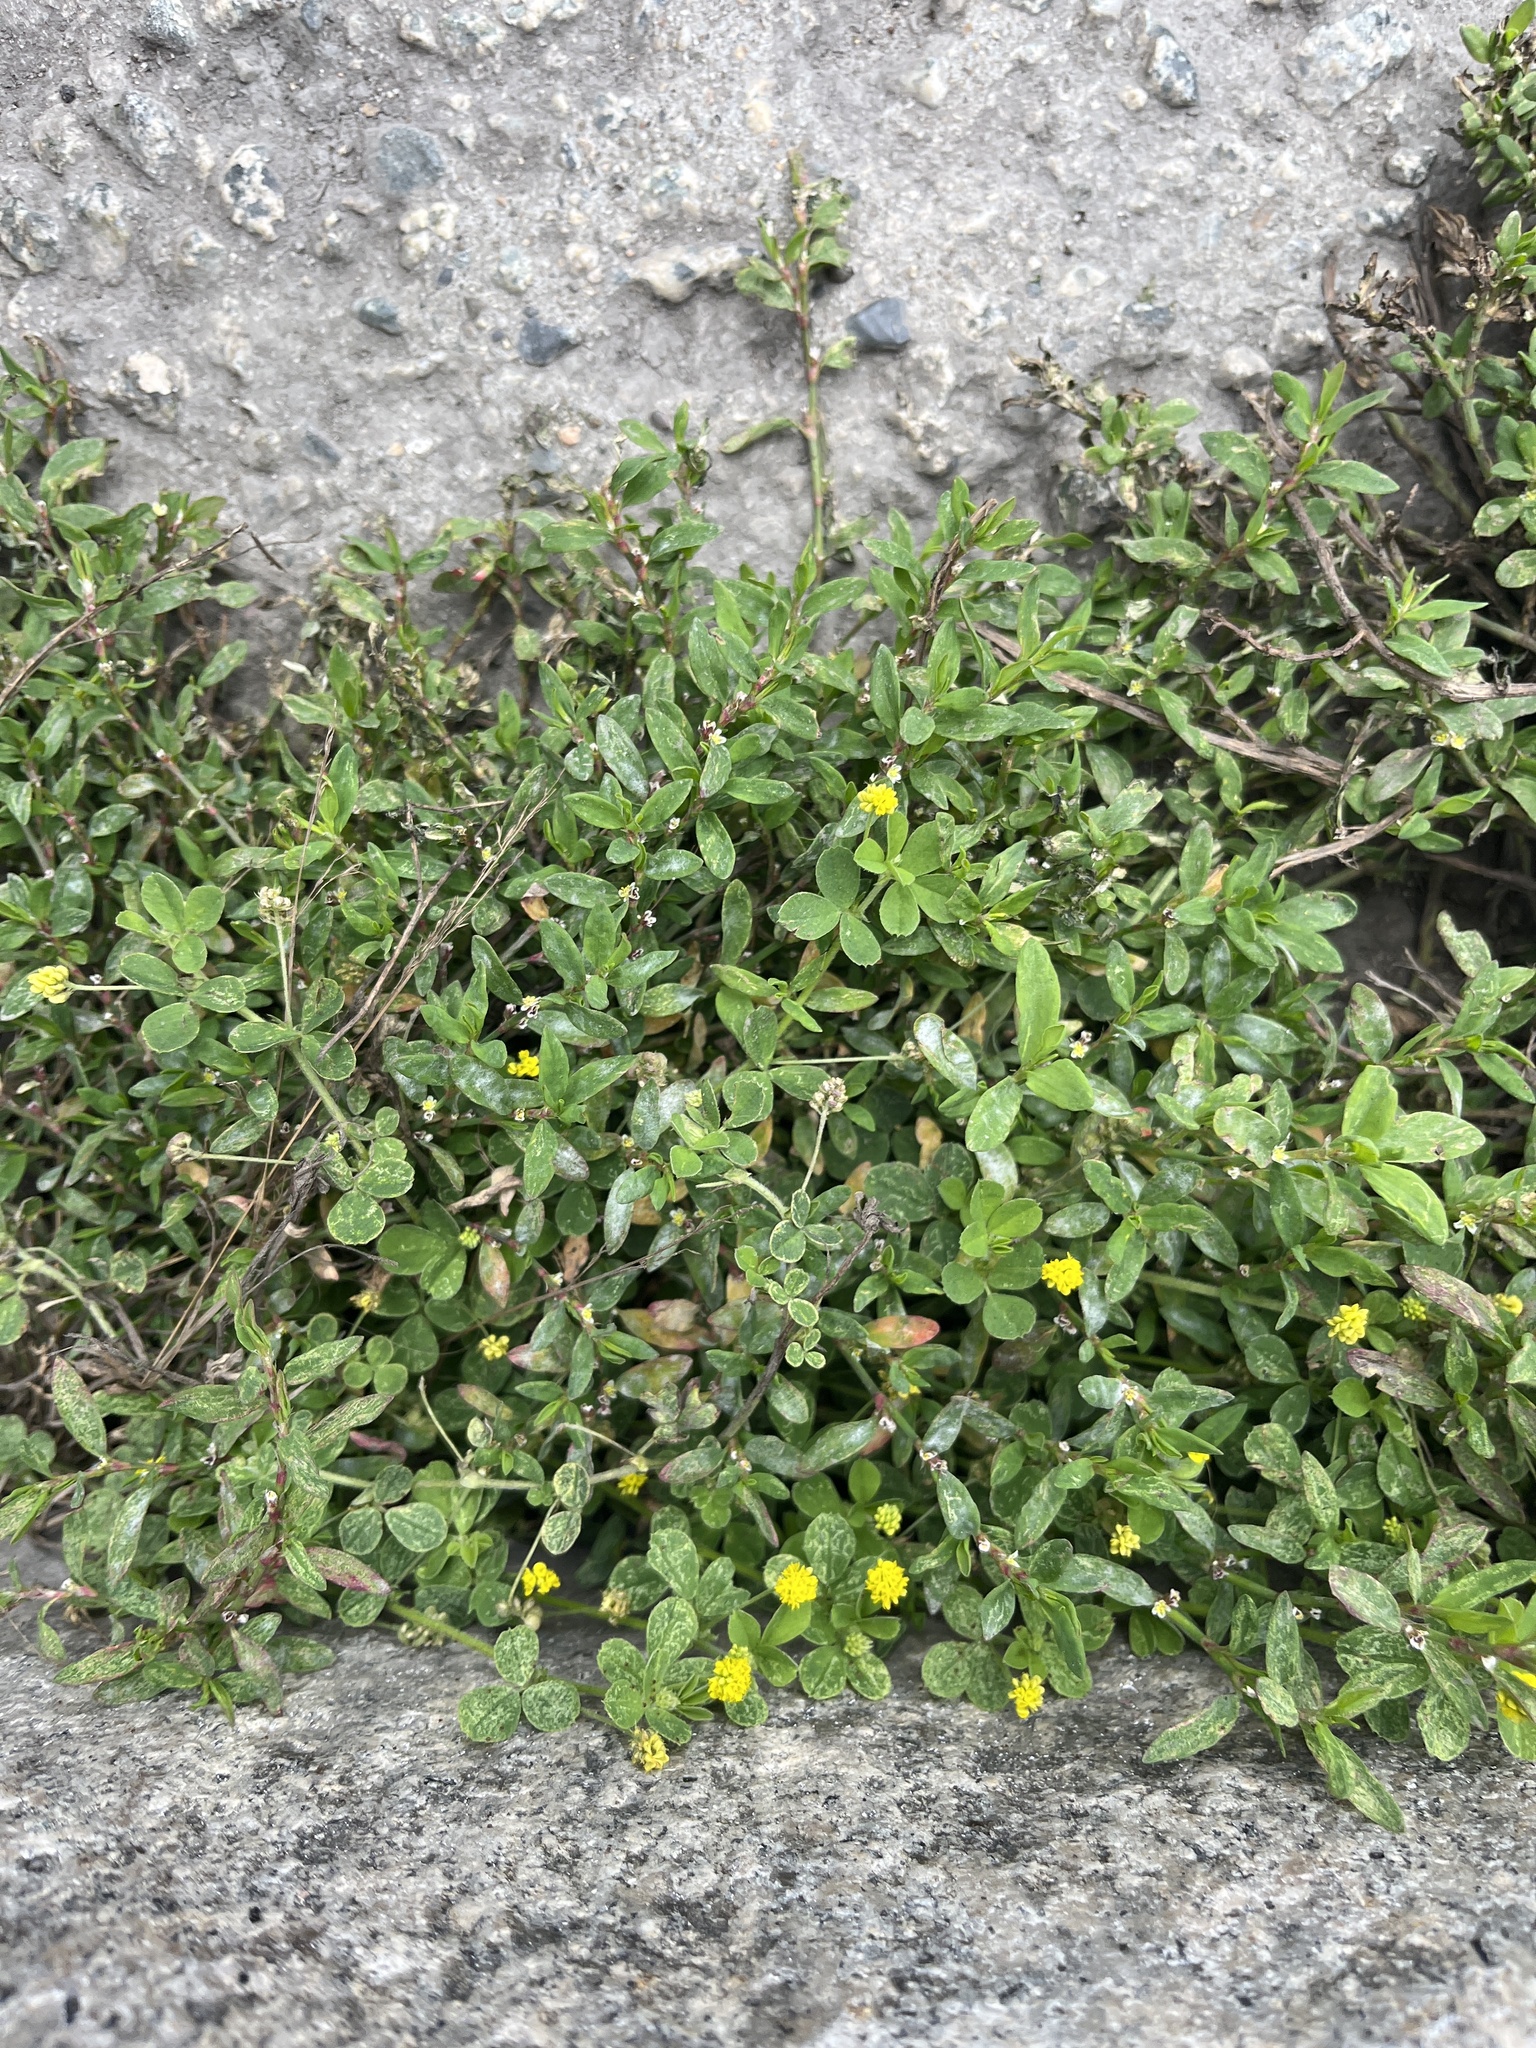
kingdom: Plantae
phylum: Tracheophyta
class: Magnoliopsida
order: Fabales
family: Fabaceae
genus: Medicago
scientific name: Medicago lupulina
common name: Black medick
